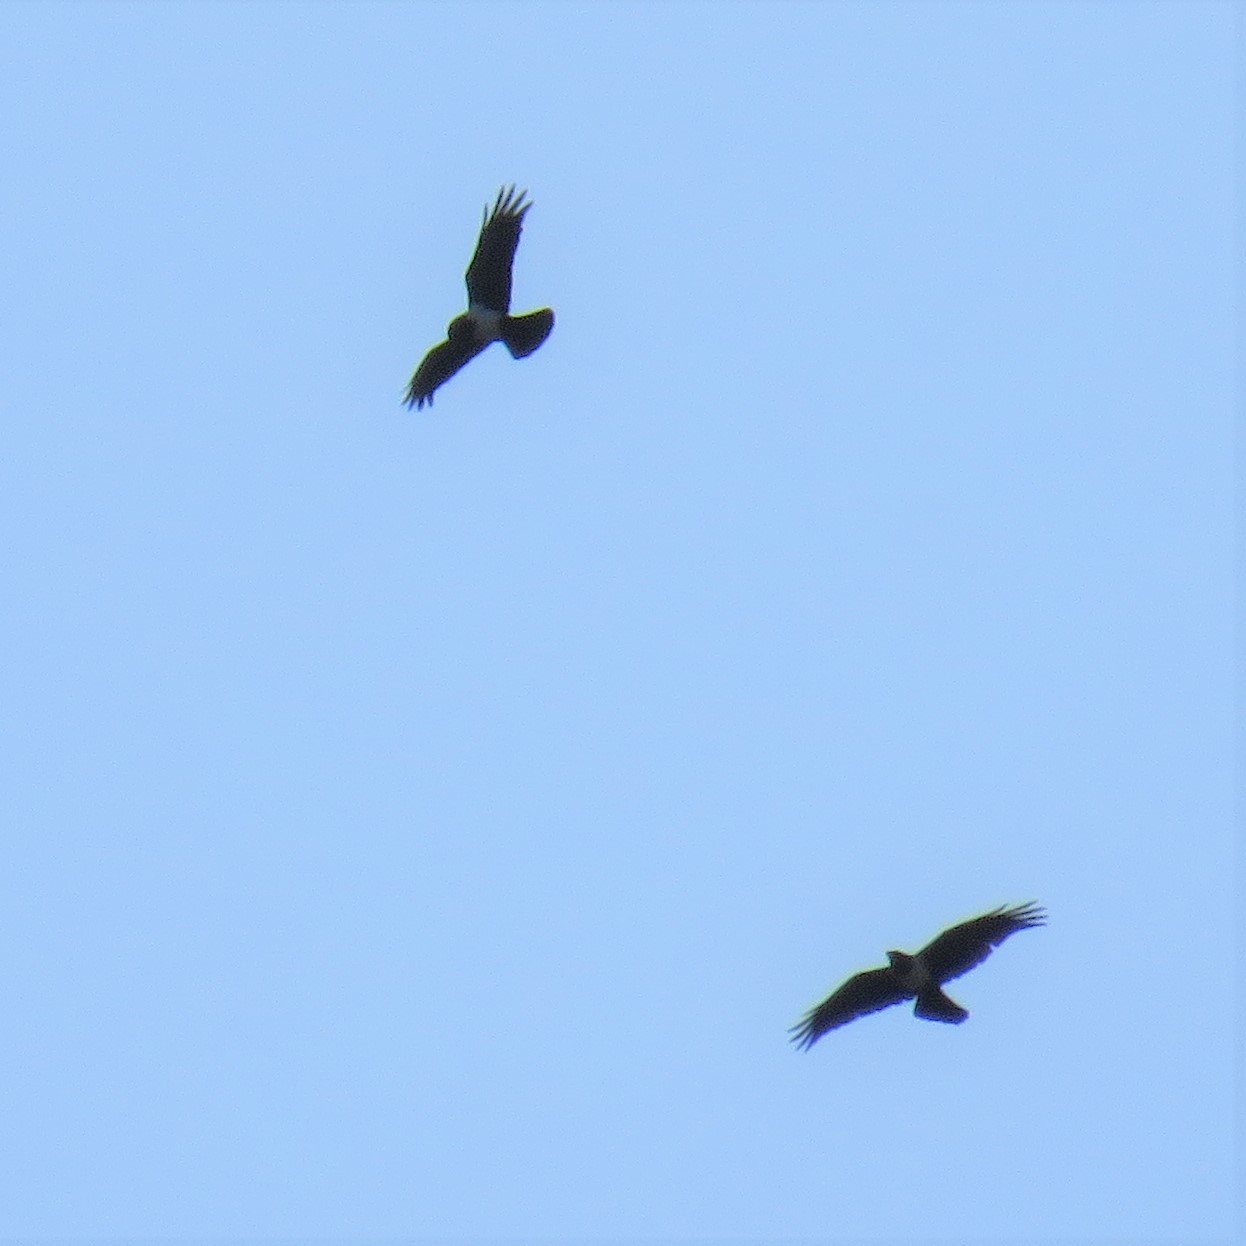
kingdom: Animalia
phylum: Chordata
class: Aves
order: Passeriformes
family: Corvidae
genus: Corvus
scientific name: Corvus albus
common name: Pied crow
